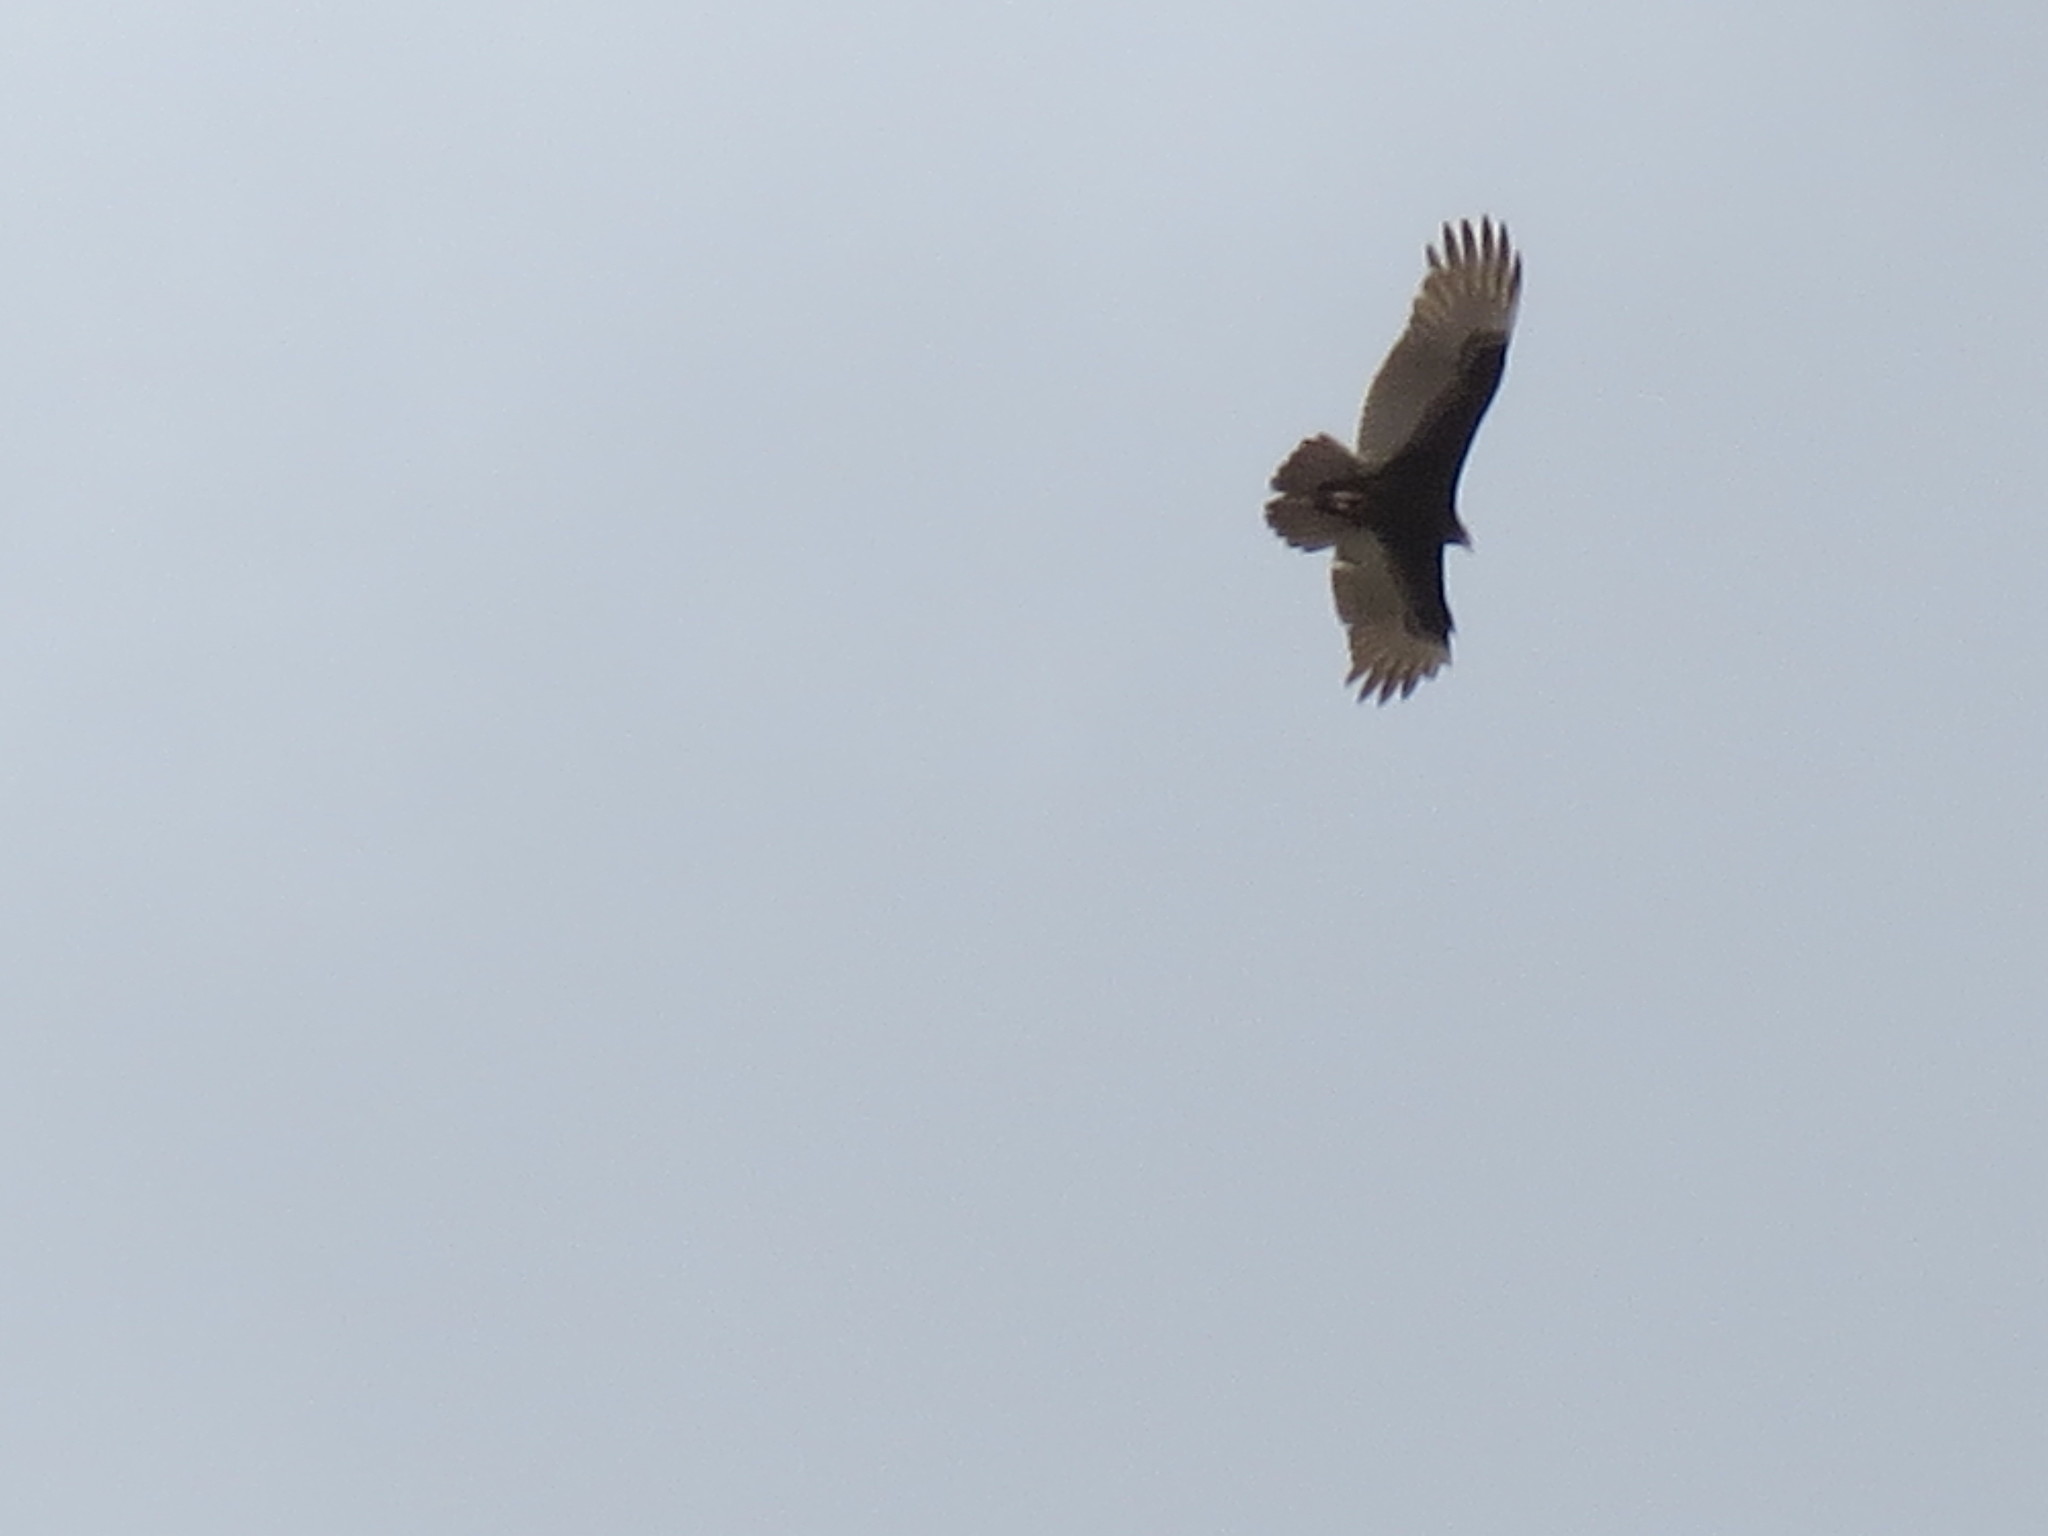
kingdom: Animalia
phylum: Chordata
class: Aves
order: Accipitriformes
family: Cathartidae
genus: Cathartes
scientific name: Cathartes aura
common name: Turkey vulture
